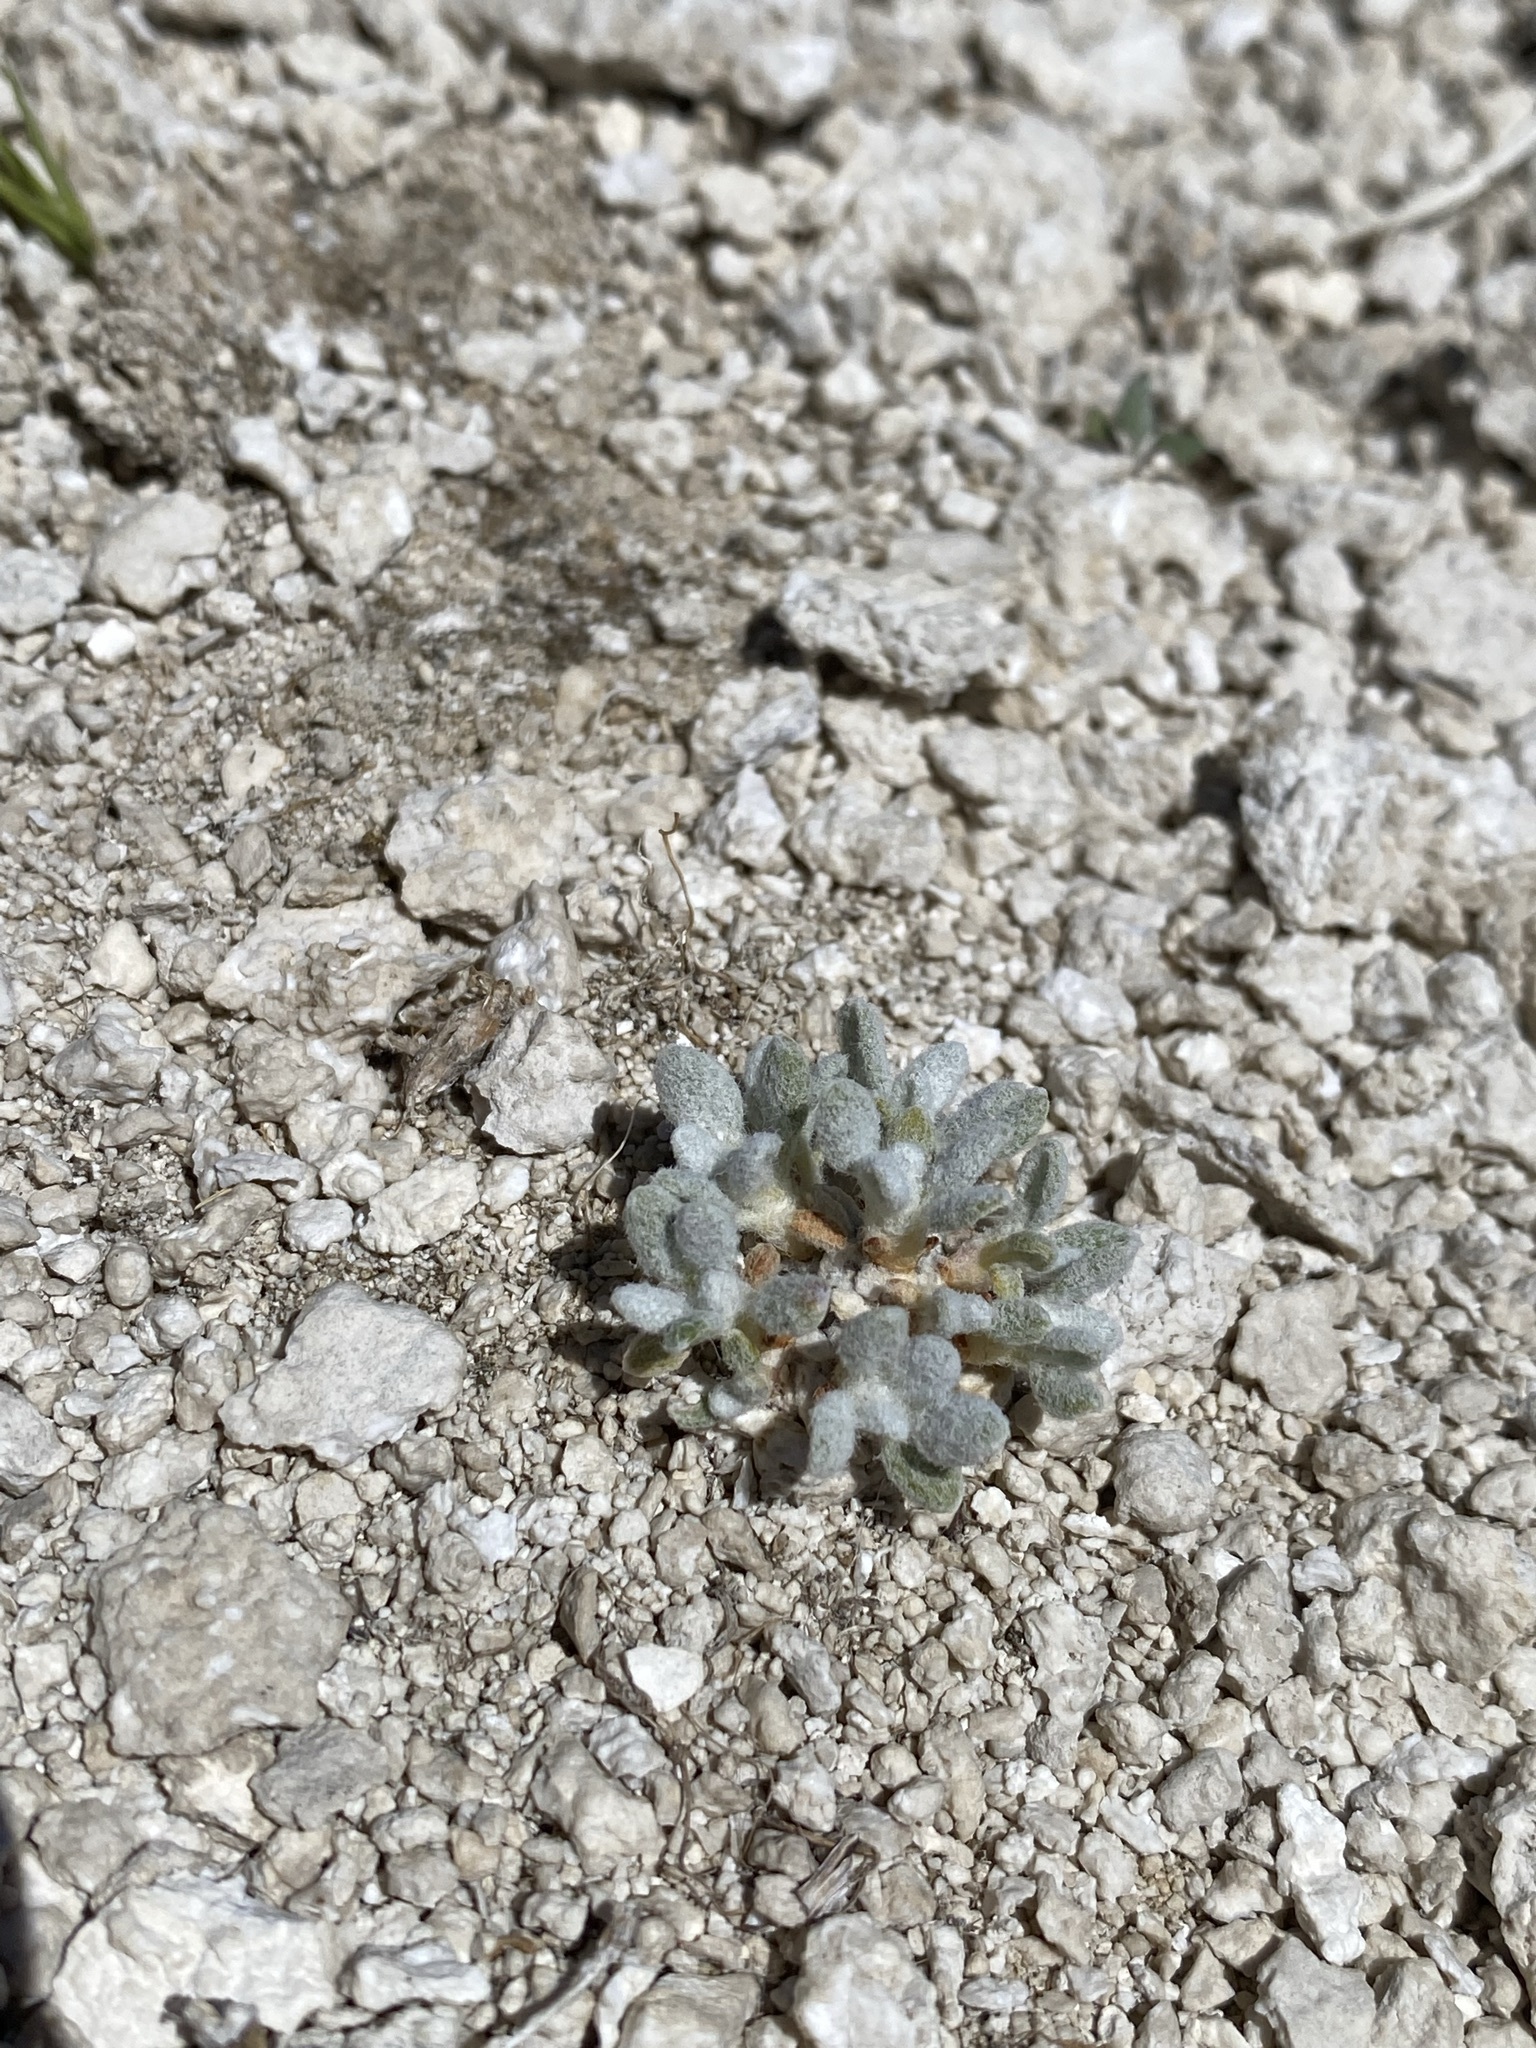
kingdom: Plantae
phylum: Tracheophyta
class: Magnoliopsida
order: Caryophyllales
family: Polygonaceae
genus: Eriogonum
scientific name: Eriogonum argophyllum
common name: Sulphur hot springs wild buckwheat
